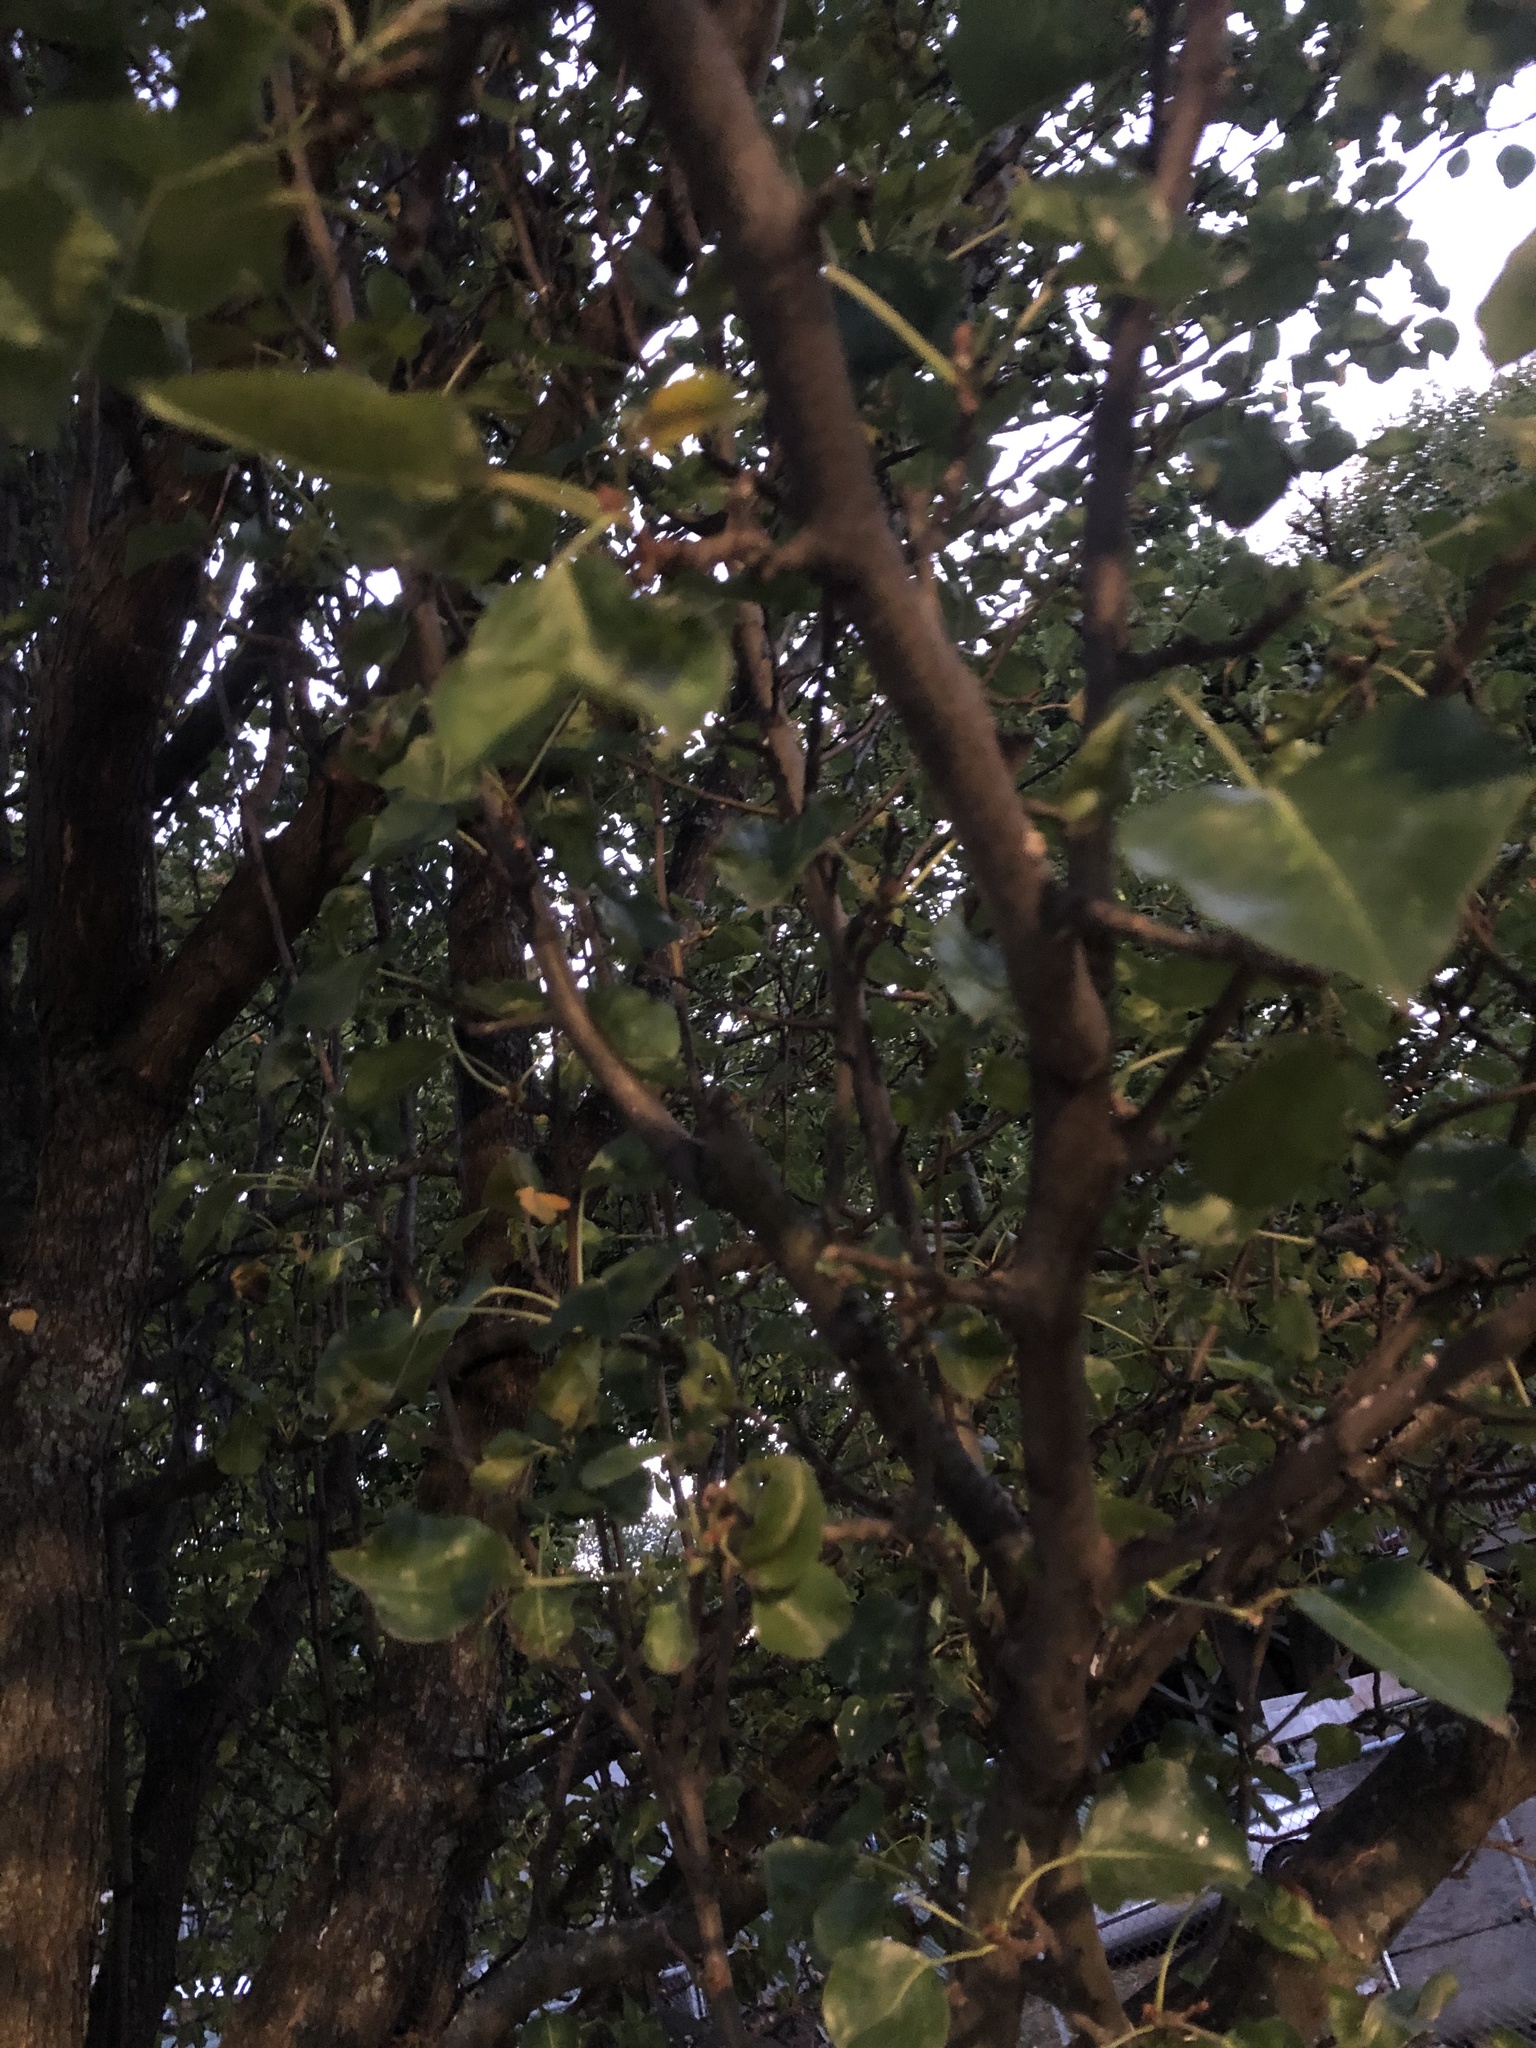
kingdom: Plantae
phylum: Tracheophyta
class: Magnoliopsida
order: Malvales
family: Malvaceae
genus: Tilia
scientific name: Tilia americana
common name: Basswood
